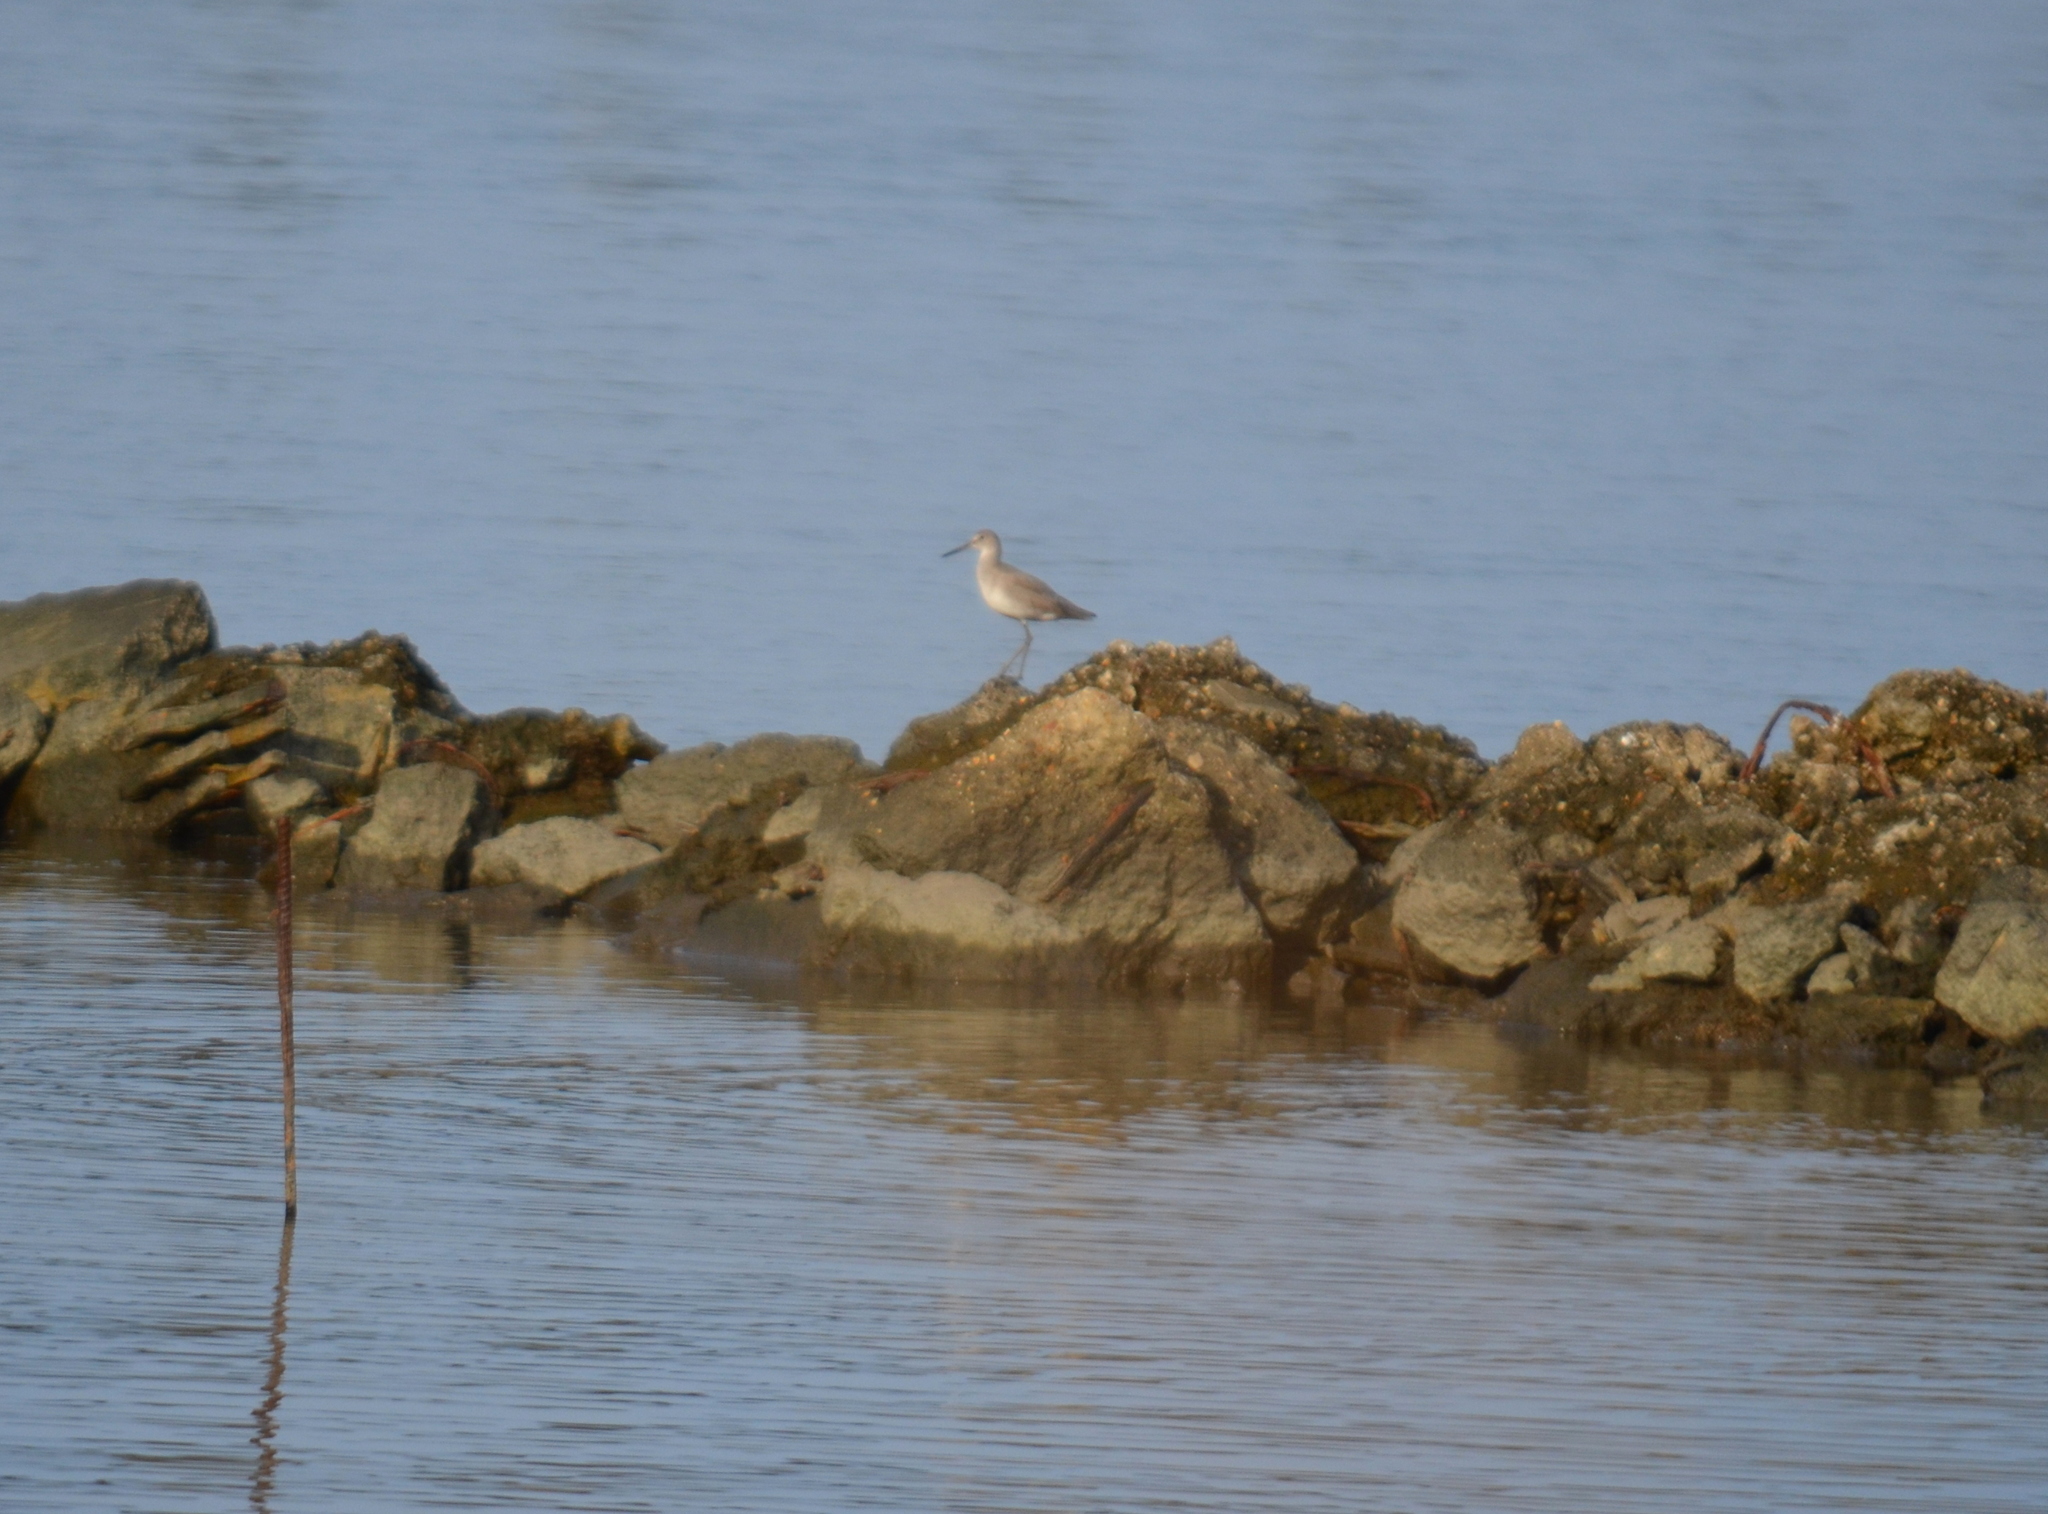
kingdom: Animalia
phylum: Chordata
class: Aves
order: Charadriiformes
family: Scolopacidae
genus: Tringa
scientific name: Tringa semipalmata
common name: Willet
